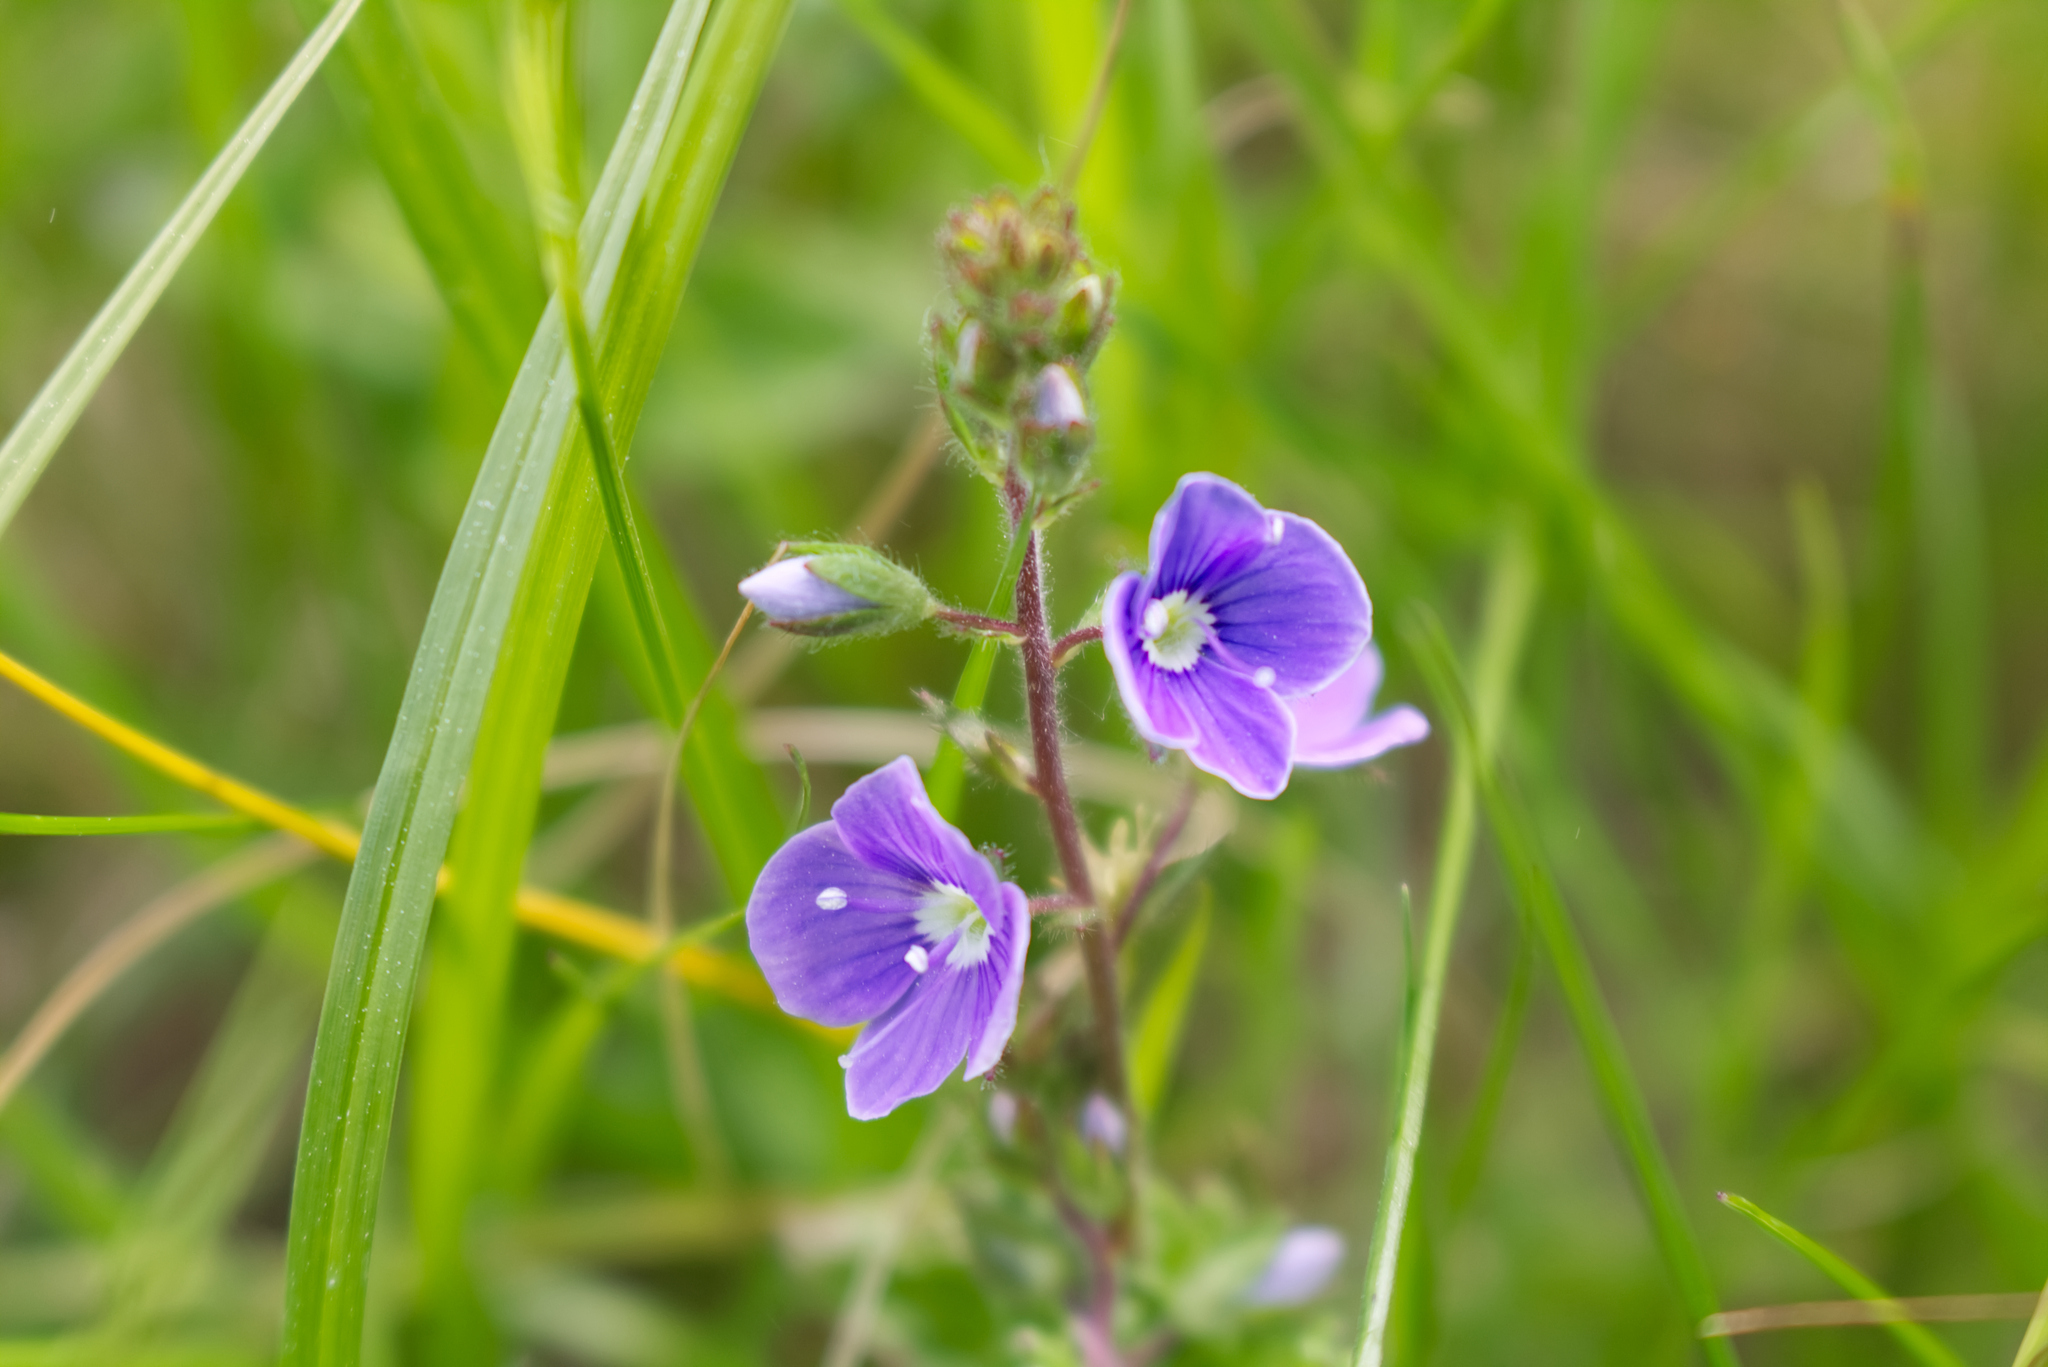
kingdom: Plantae
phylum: Tracheophyta
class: Magnoliopsida
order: Lamiales
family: Plantaginaceae
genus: Veronica
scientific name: Veronica chamaedrys
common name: Germander speedwell
